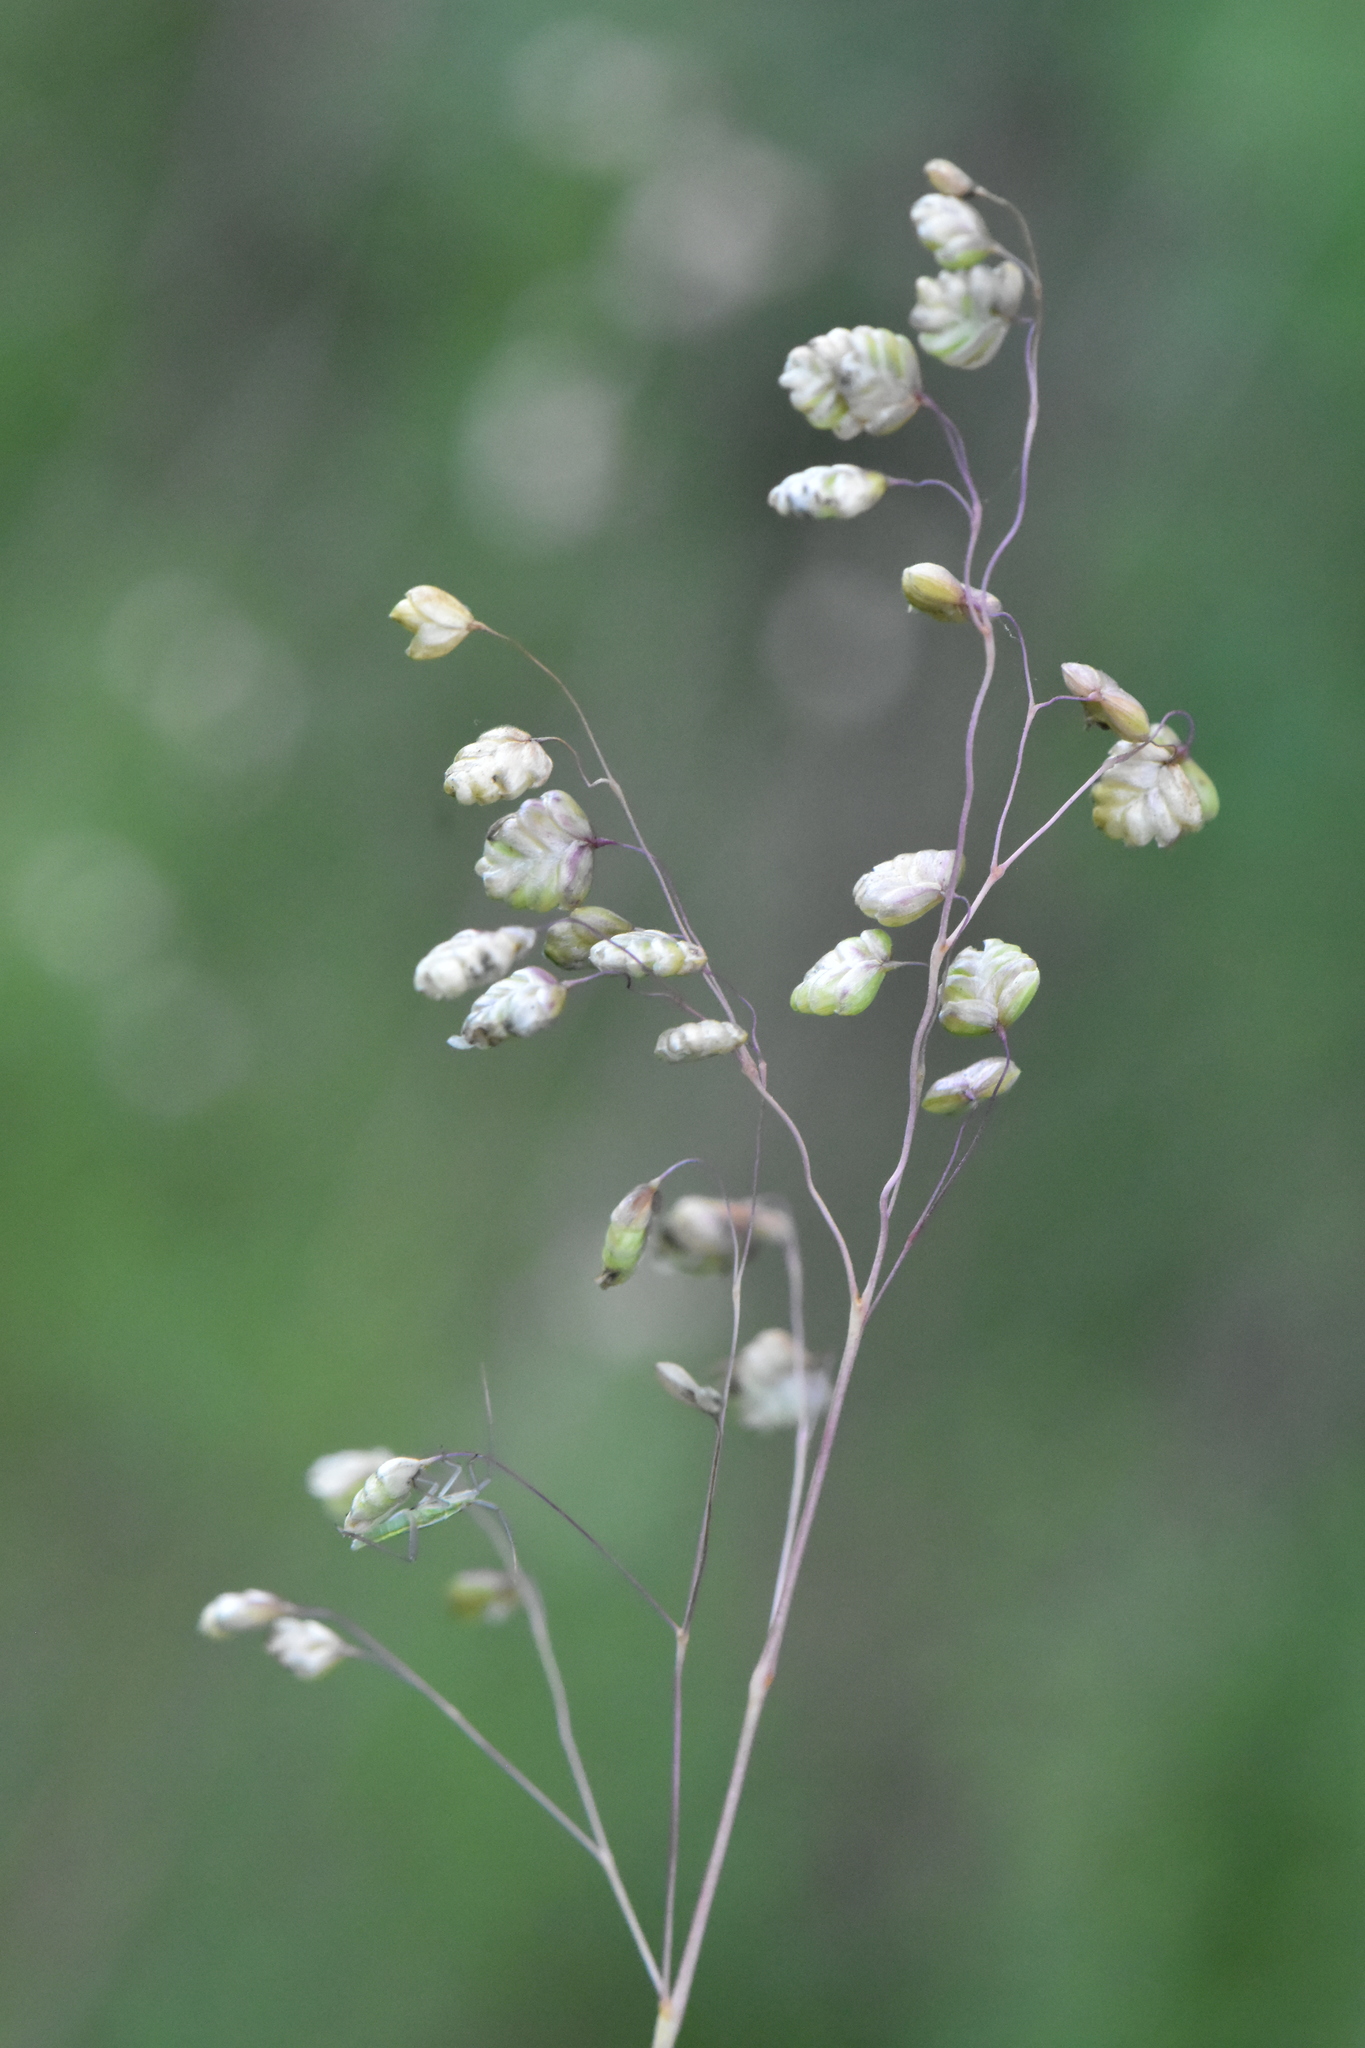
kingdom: Plantae
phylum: Tracheophyta
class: Liliopsida
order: Poales
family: Poaceae
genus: Briza
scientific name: Briza media
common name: Quaking grass
